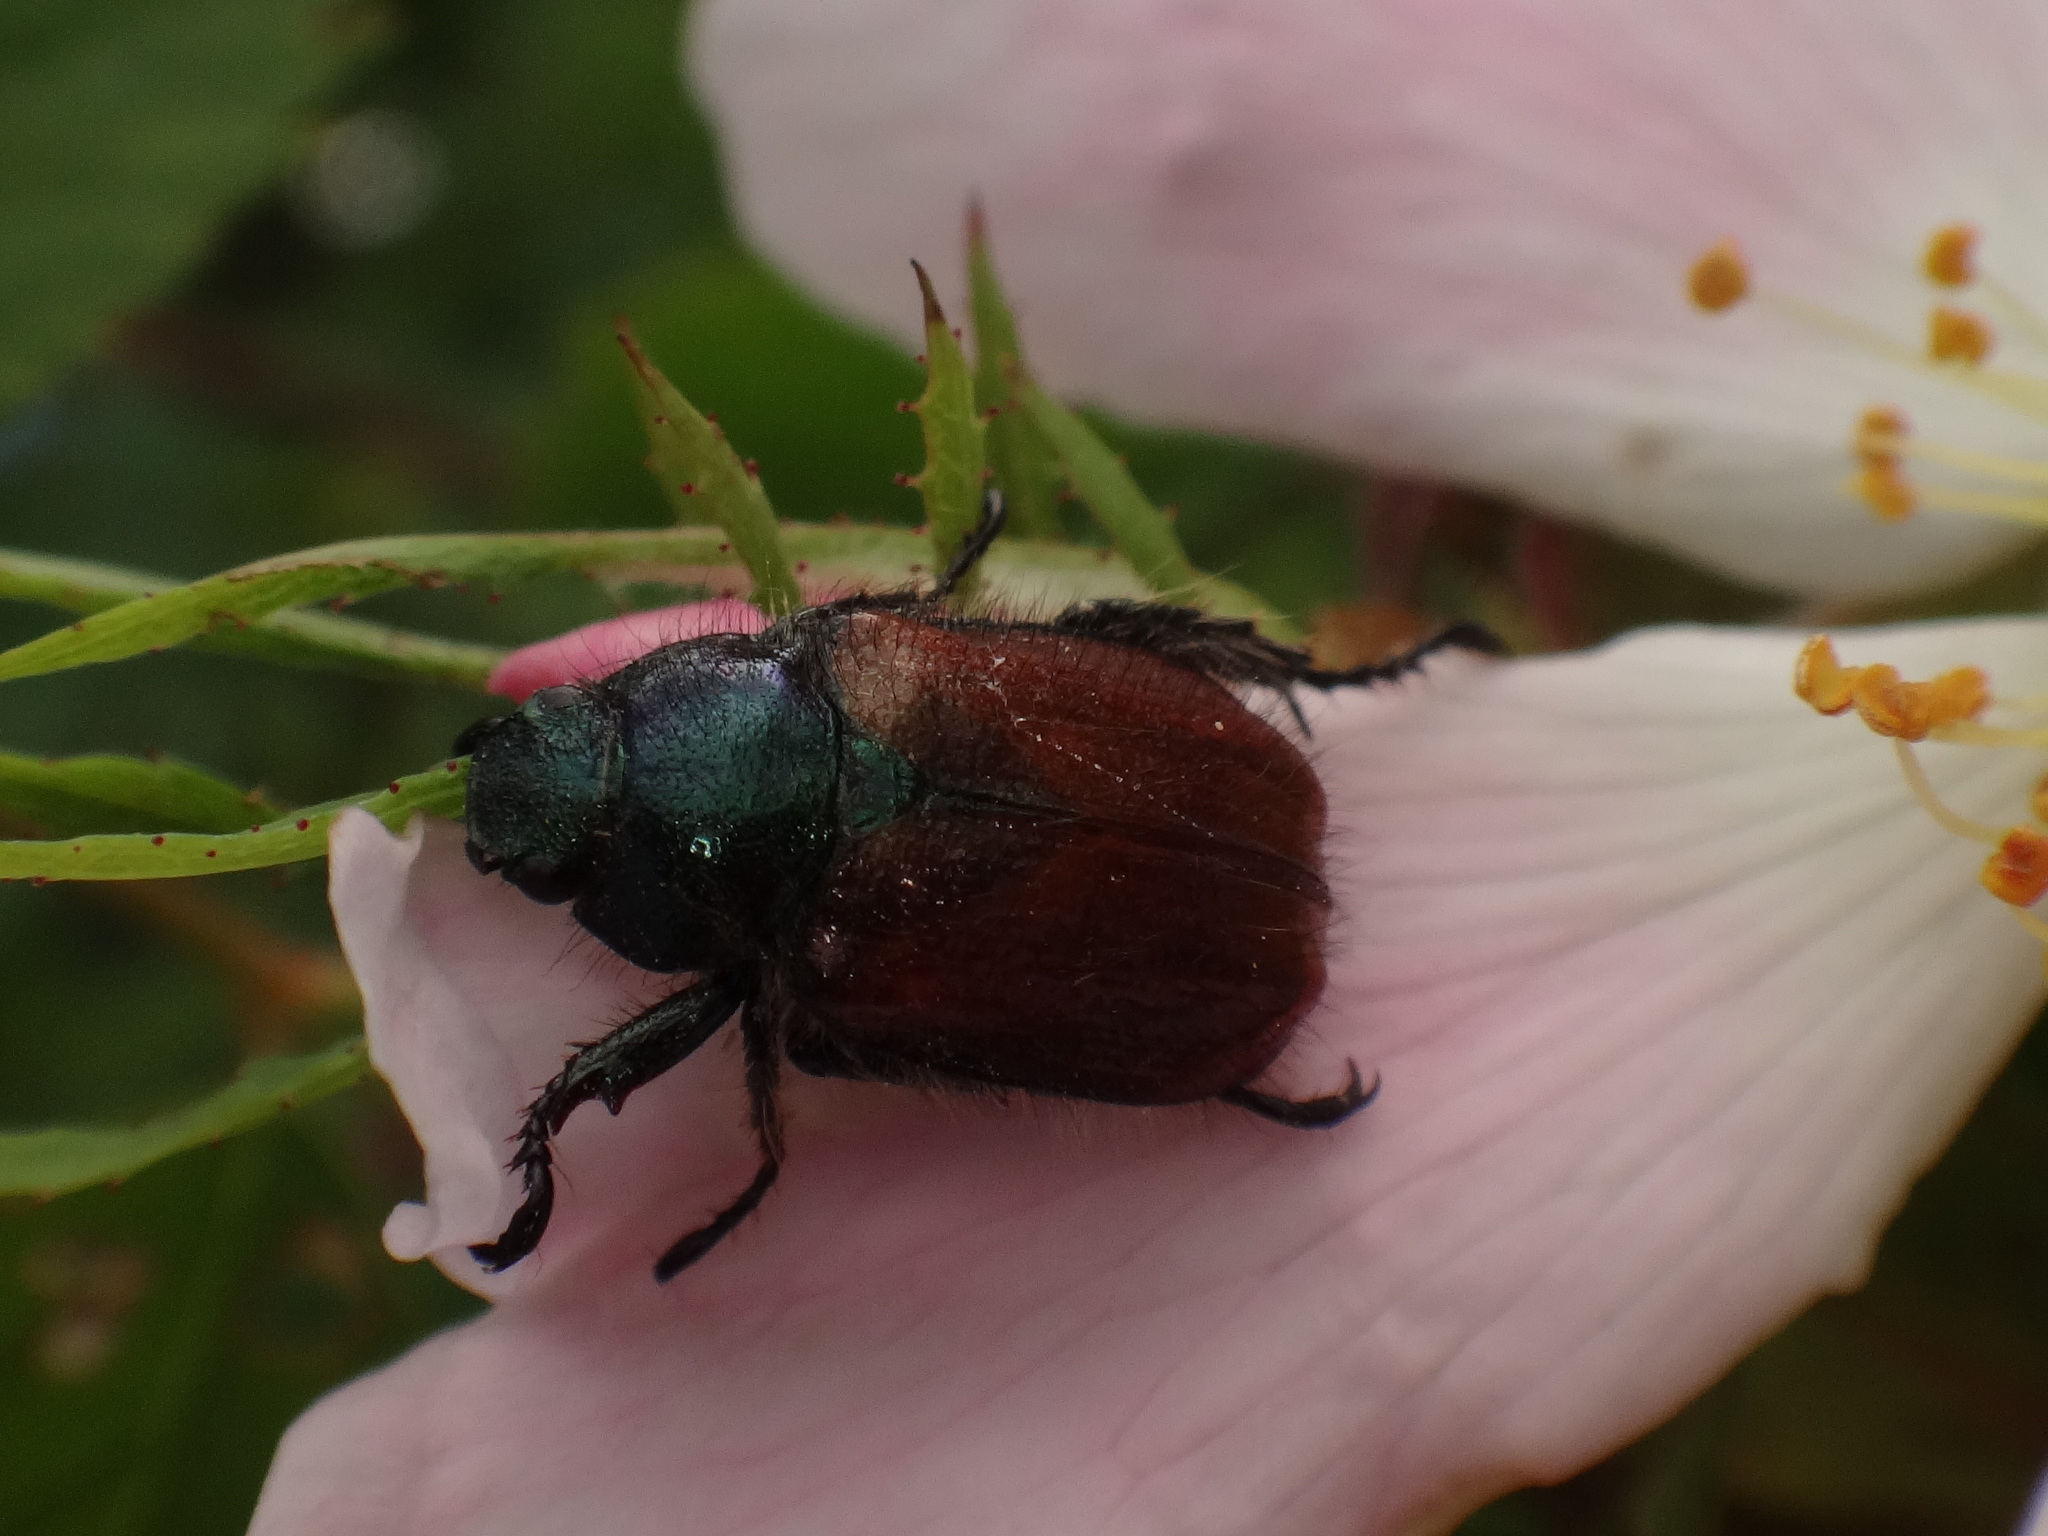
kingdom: Animalia
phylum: Arthropoda
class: Insecta
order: Coleoptera
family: Scarabaeidae
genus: Phyllopertha
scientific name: Phyllopertha horticola
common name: Garden chafer
